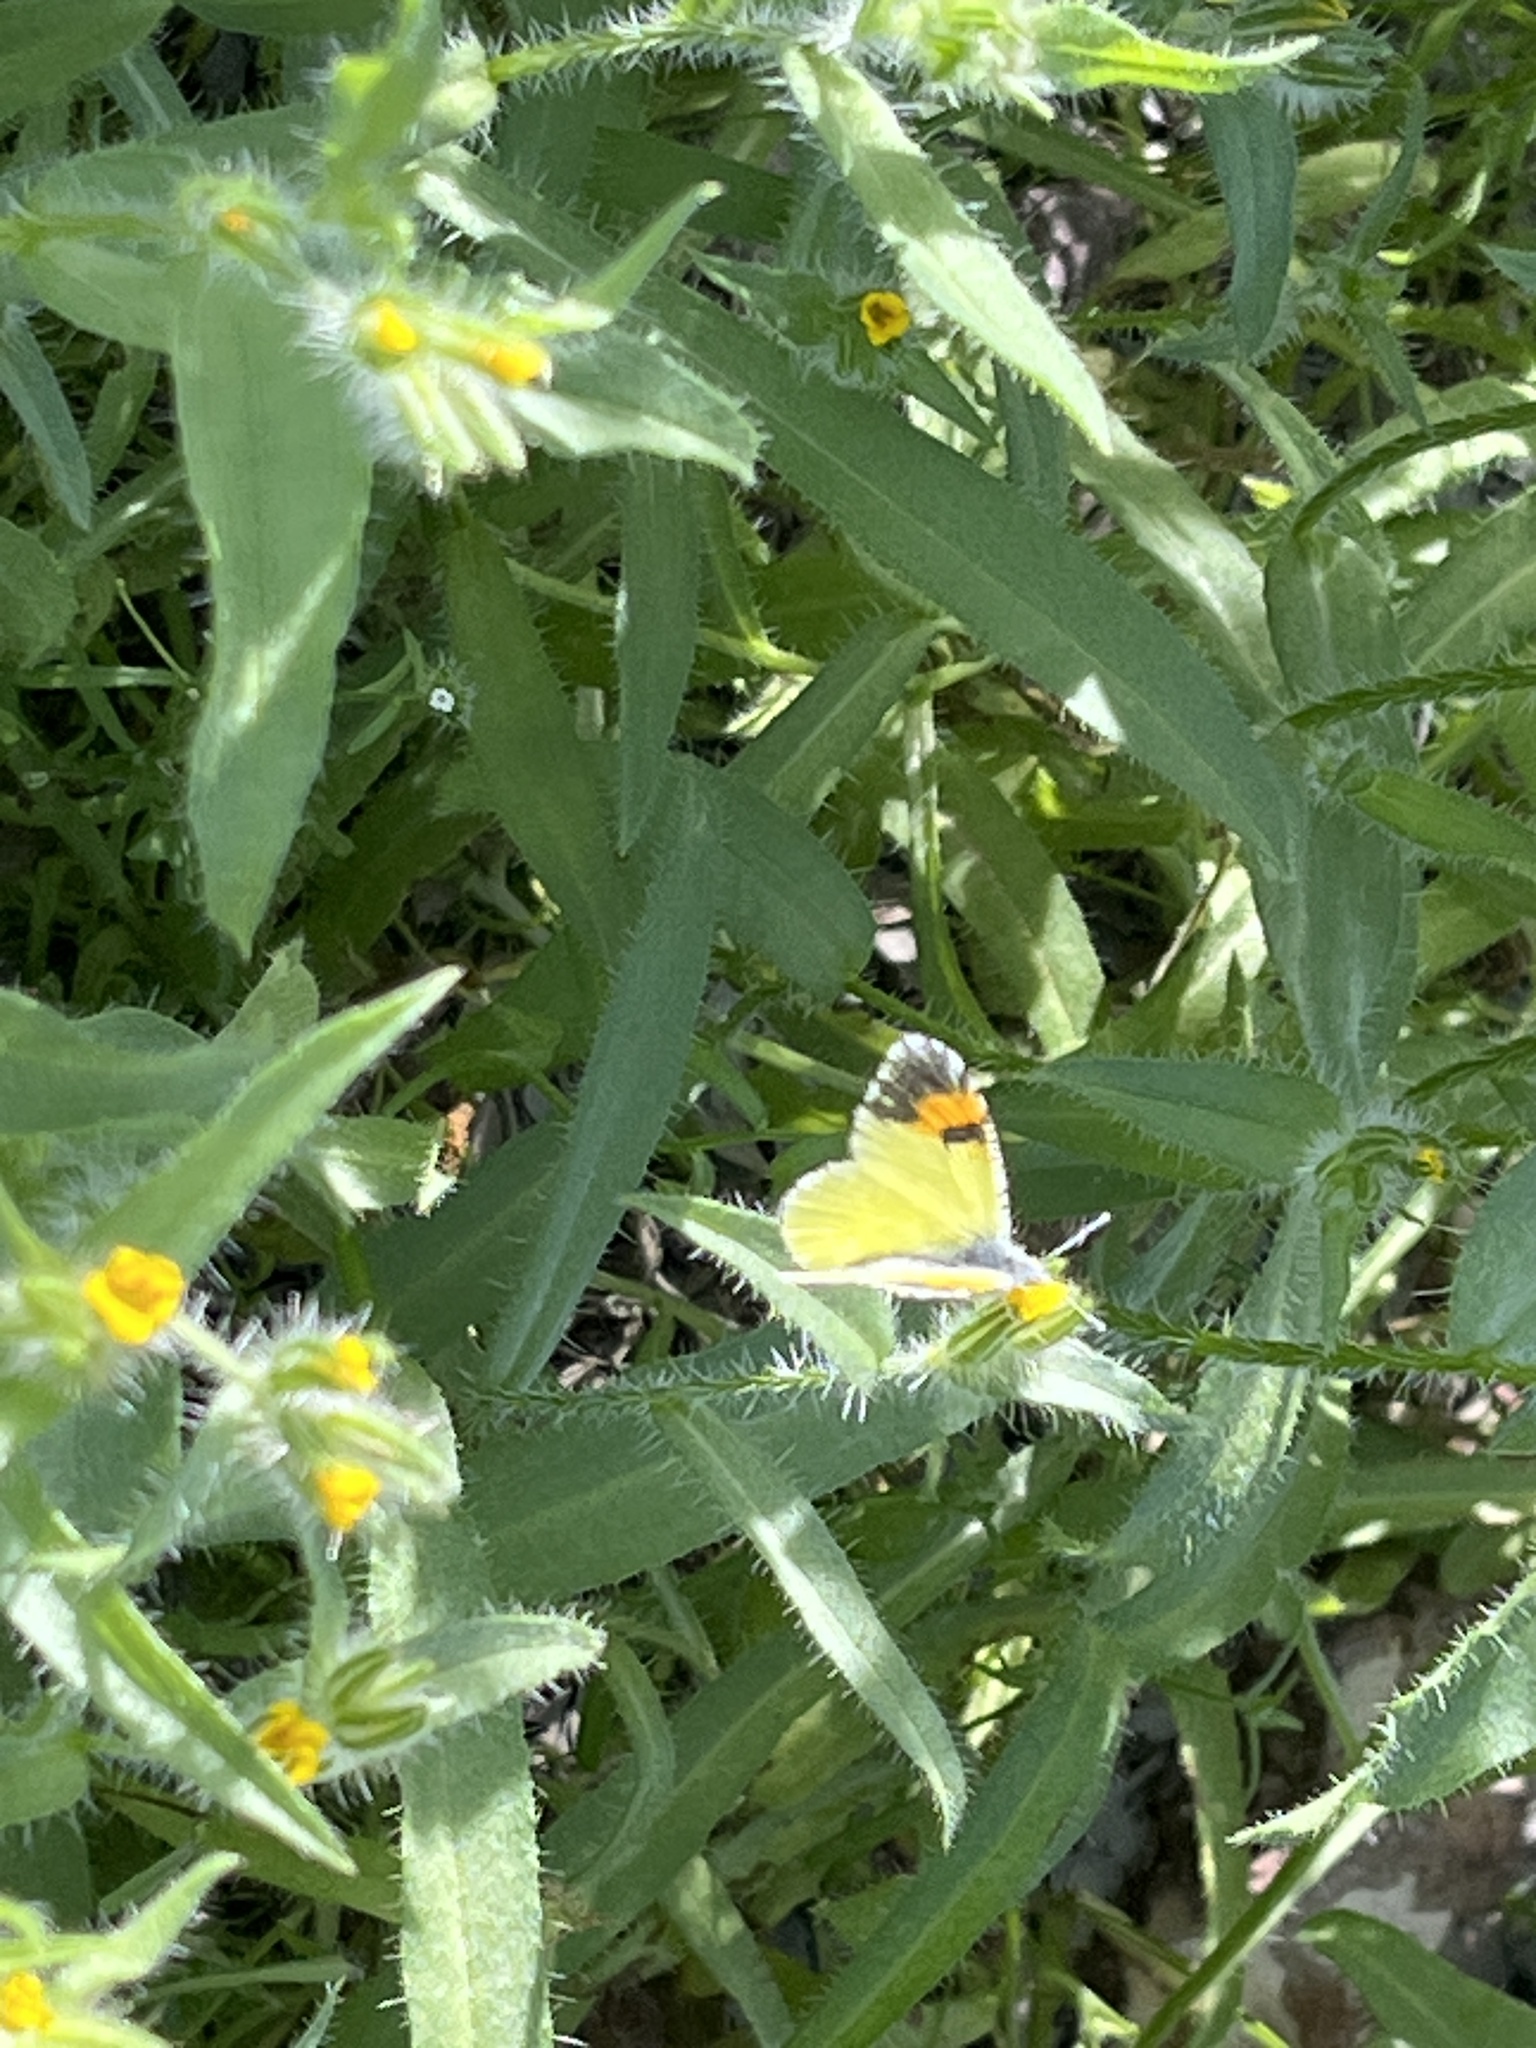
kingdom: Animalia
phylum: Arthropoda
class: Insecta
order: Lepidoptera
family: Pieridae
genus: Anthocharis
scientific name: Anthocharis cethura
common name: Desert orangetip
